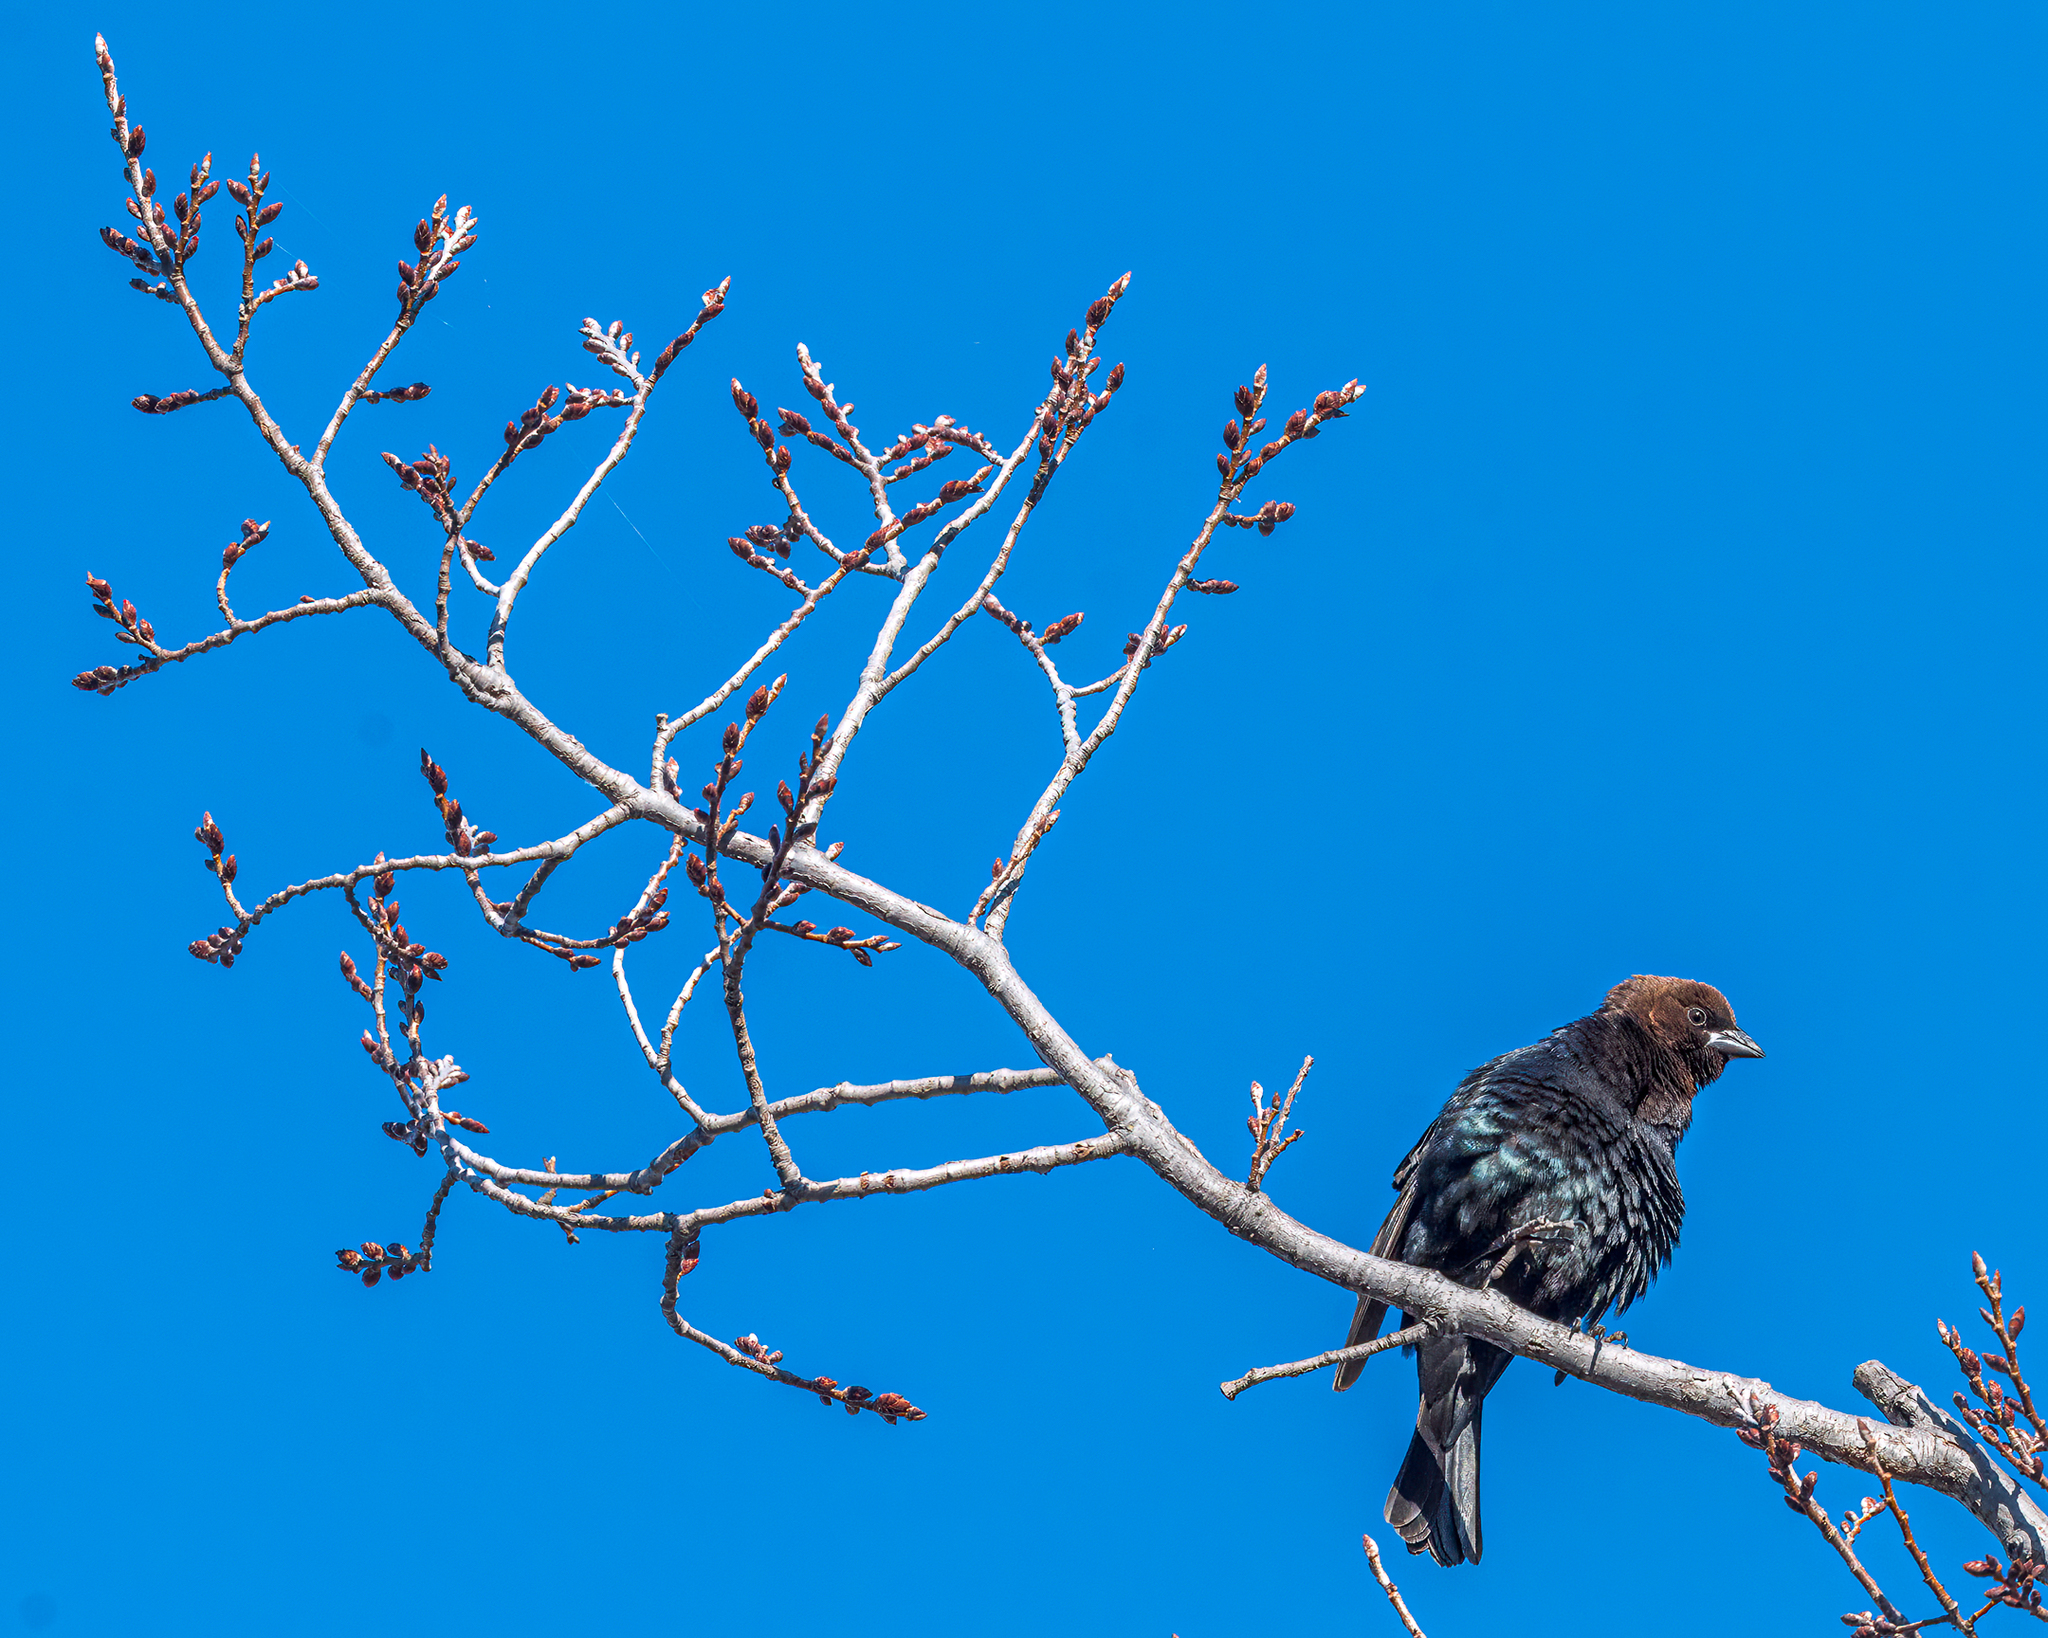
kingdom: Animalia
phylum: Chordata
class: Aves
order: Passeriformes
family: Icteridae
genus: Molothrus
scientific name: Molothrus ater
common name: Brown-headed cowbird
